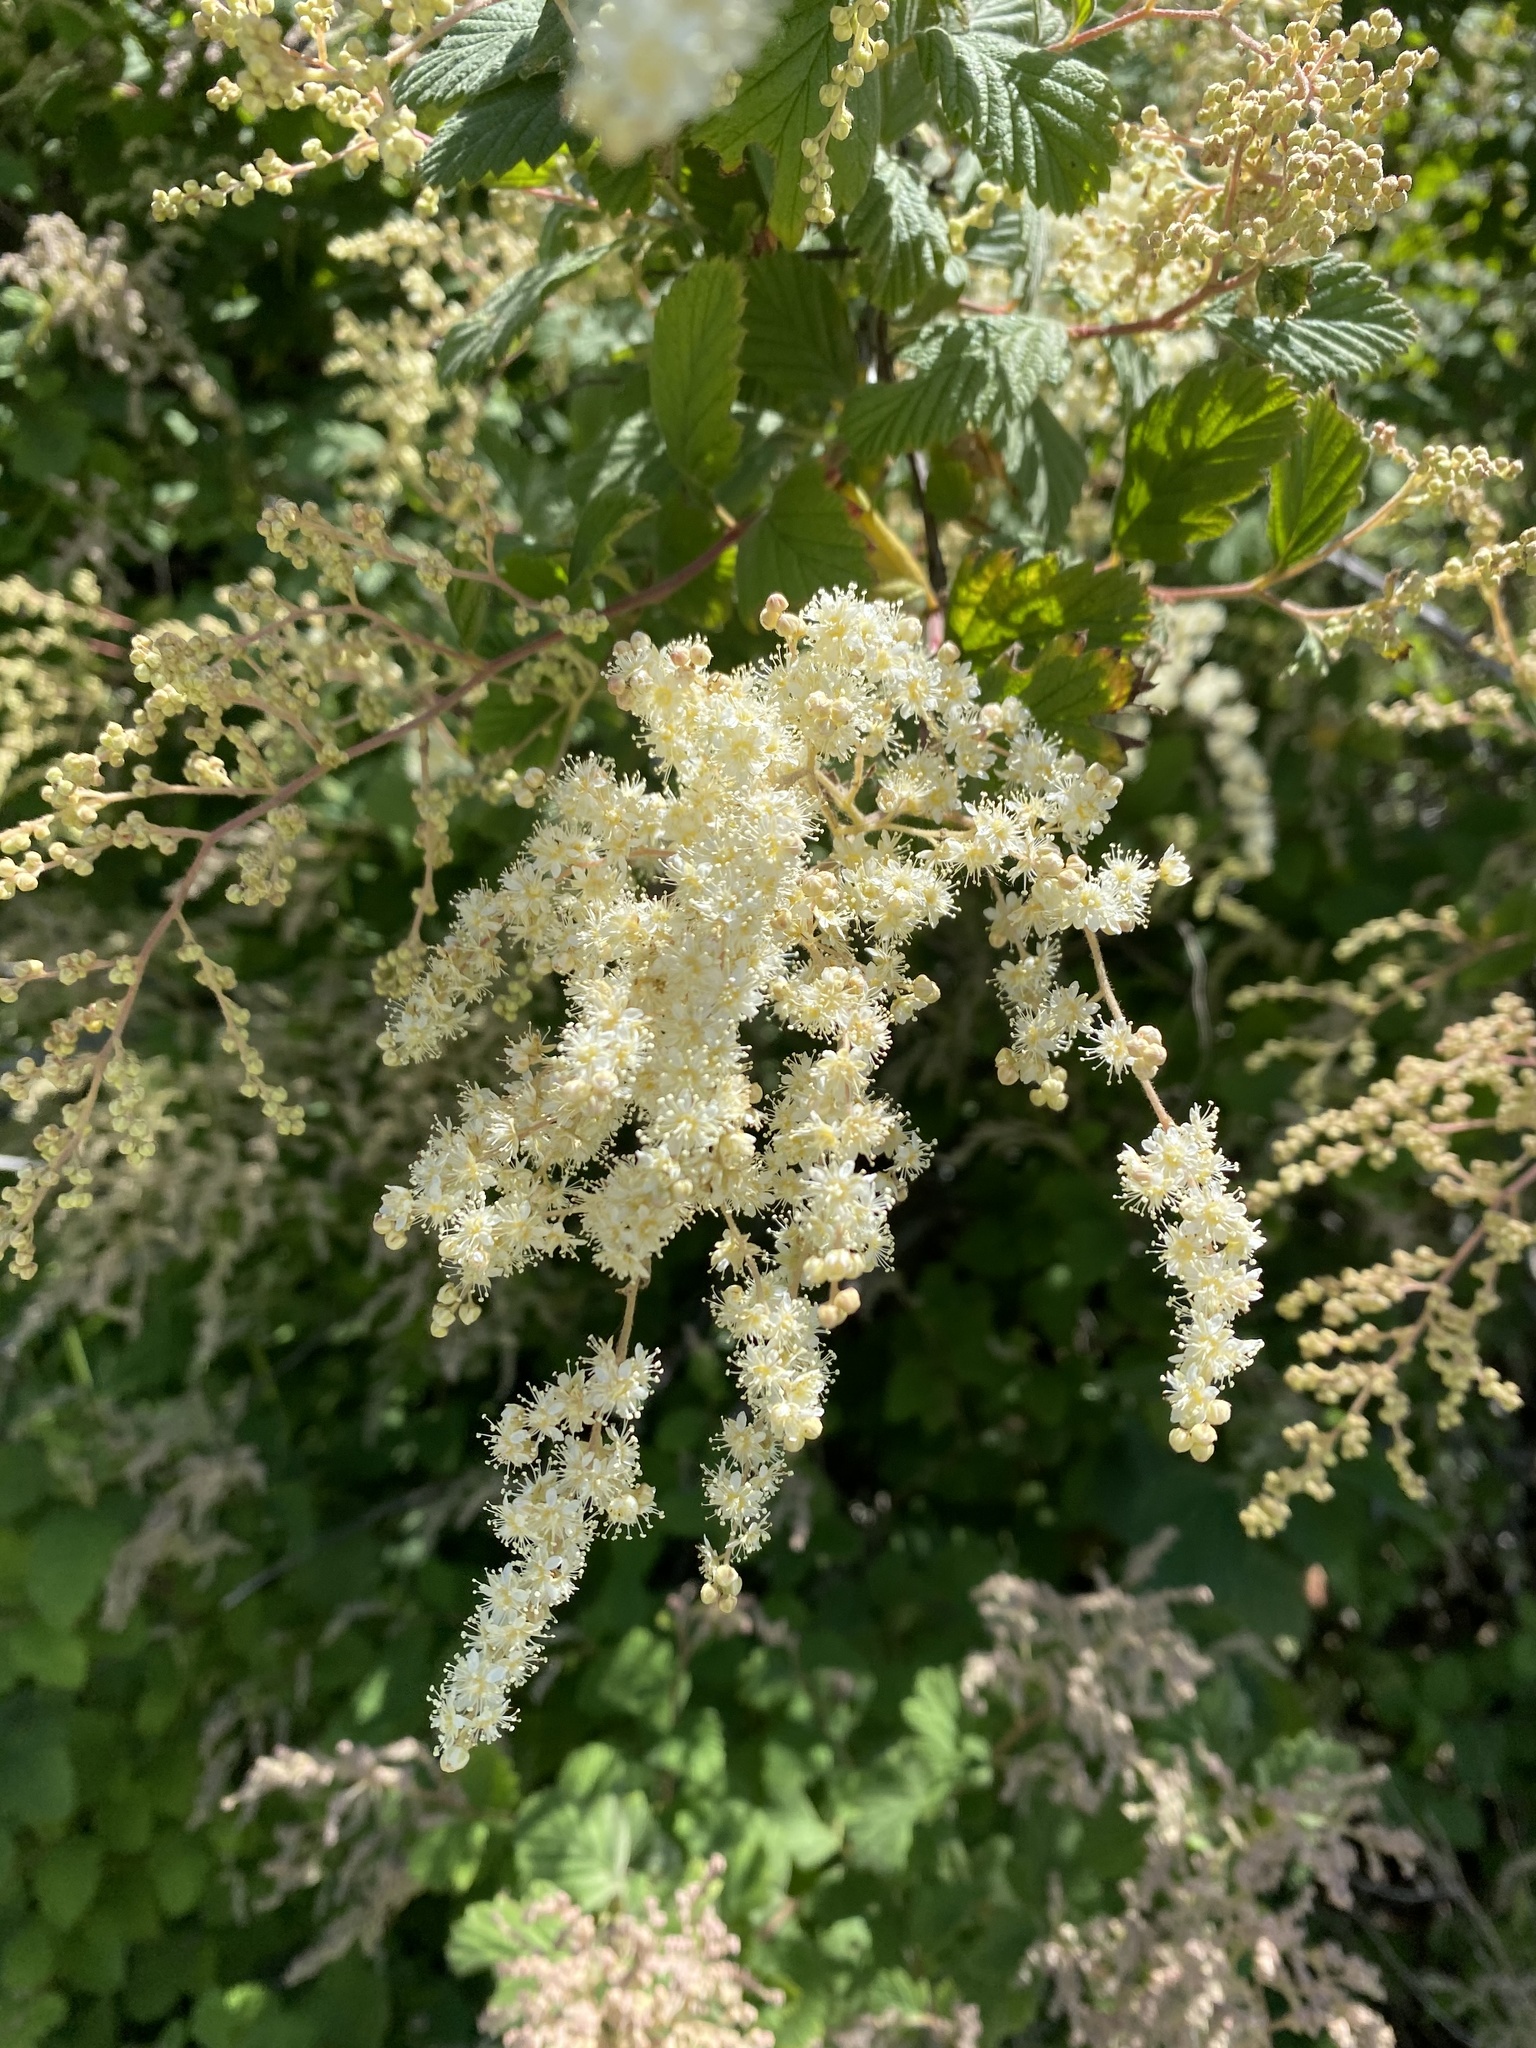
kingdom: Plantae
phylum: Tracheophyta
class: Magnoliopsida
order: Rosales
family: Rosaceae
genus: Holodiscus
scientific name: Holodiscus discolor
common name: Oceanspray
